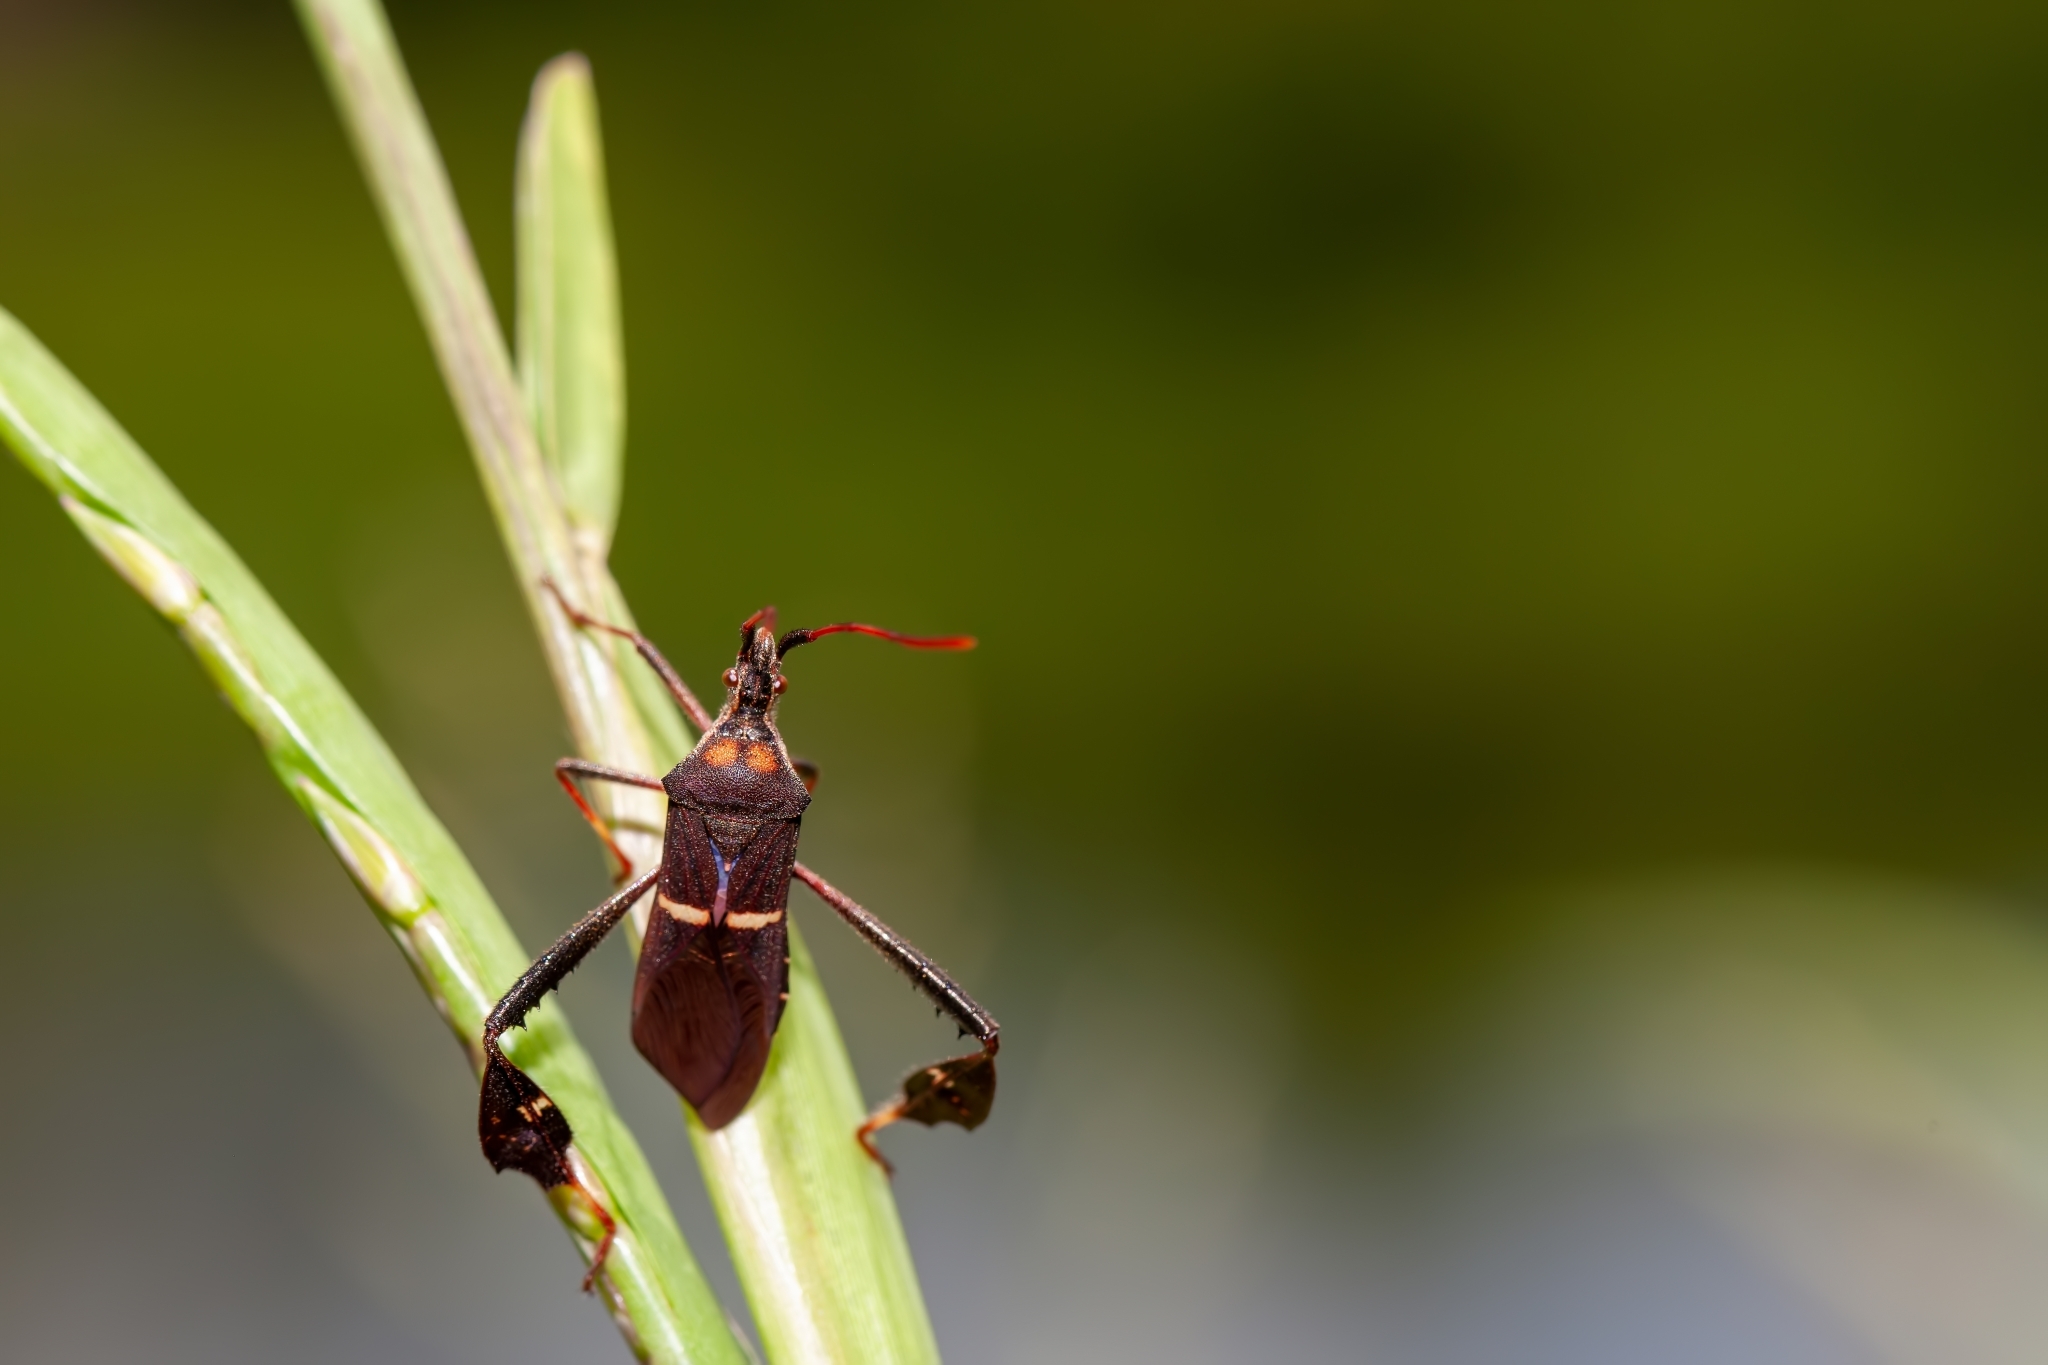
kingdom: Animalia
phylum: Arthropoda
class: Insecta
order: Hemiptera
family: Coreidae
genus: Leptoglossus
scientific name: Leptoglossus phyllopus
